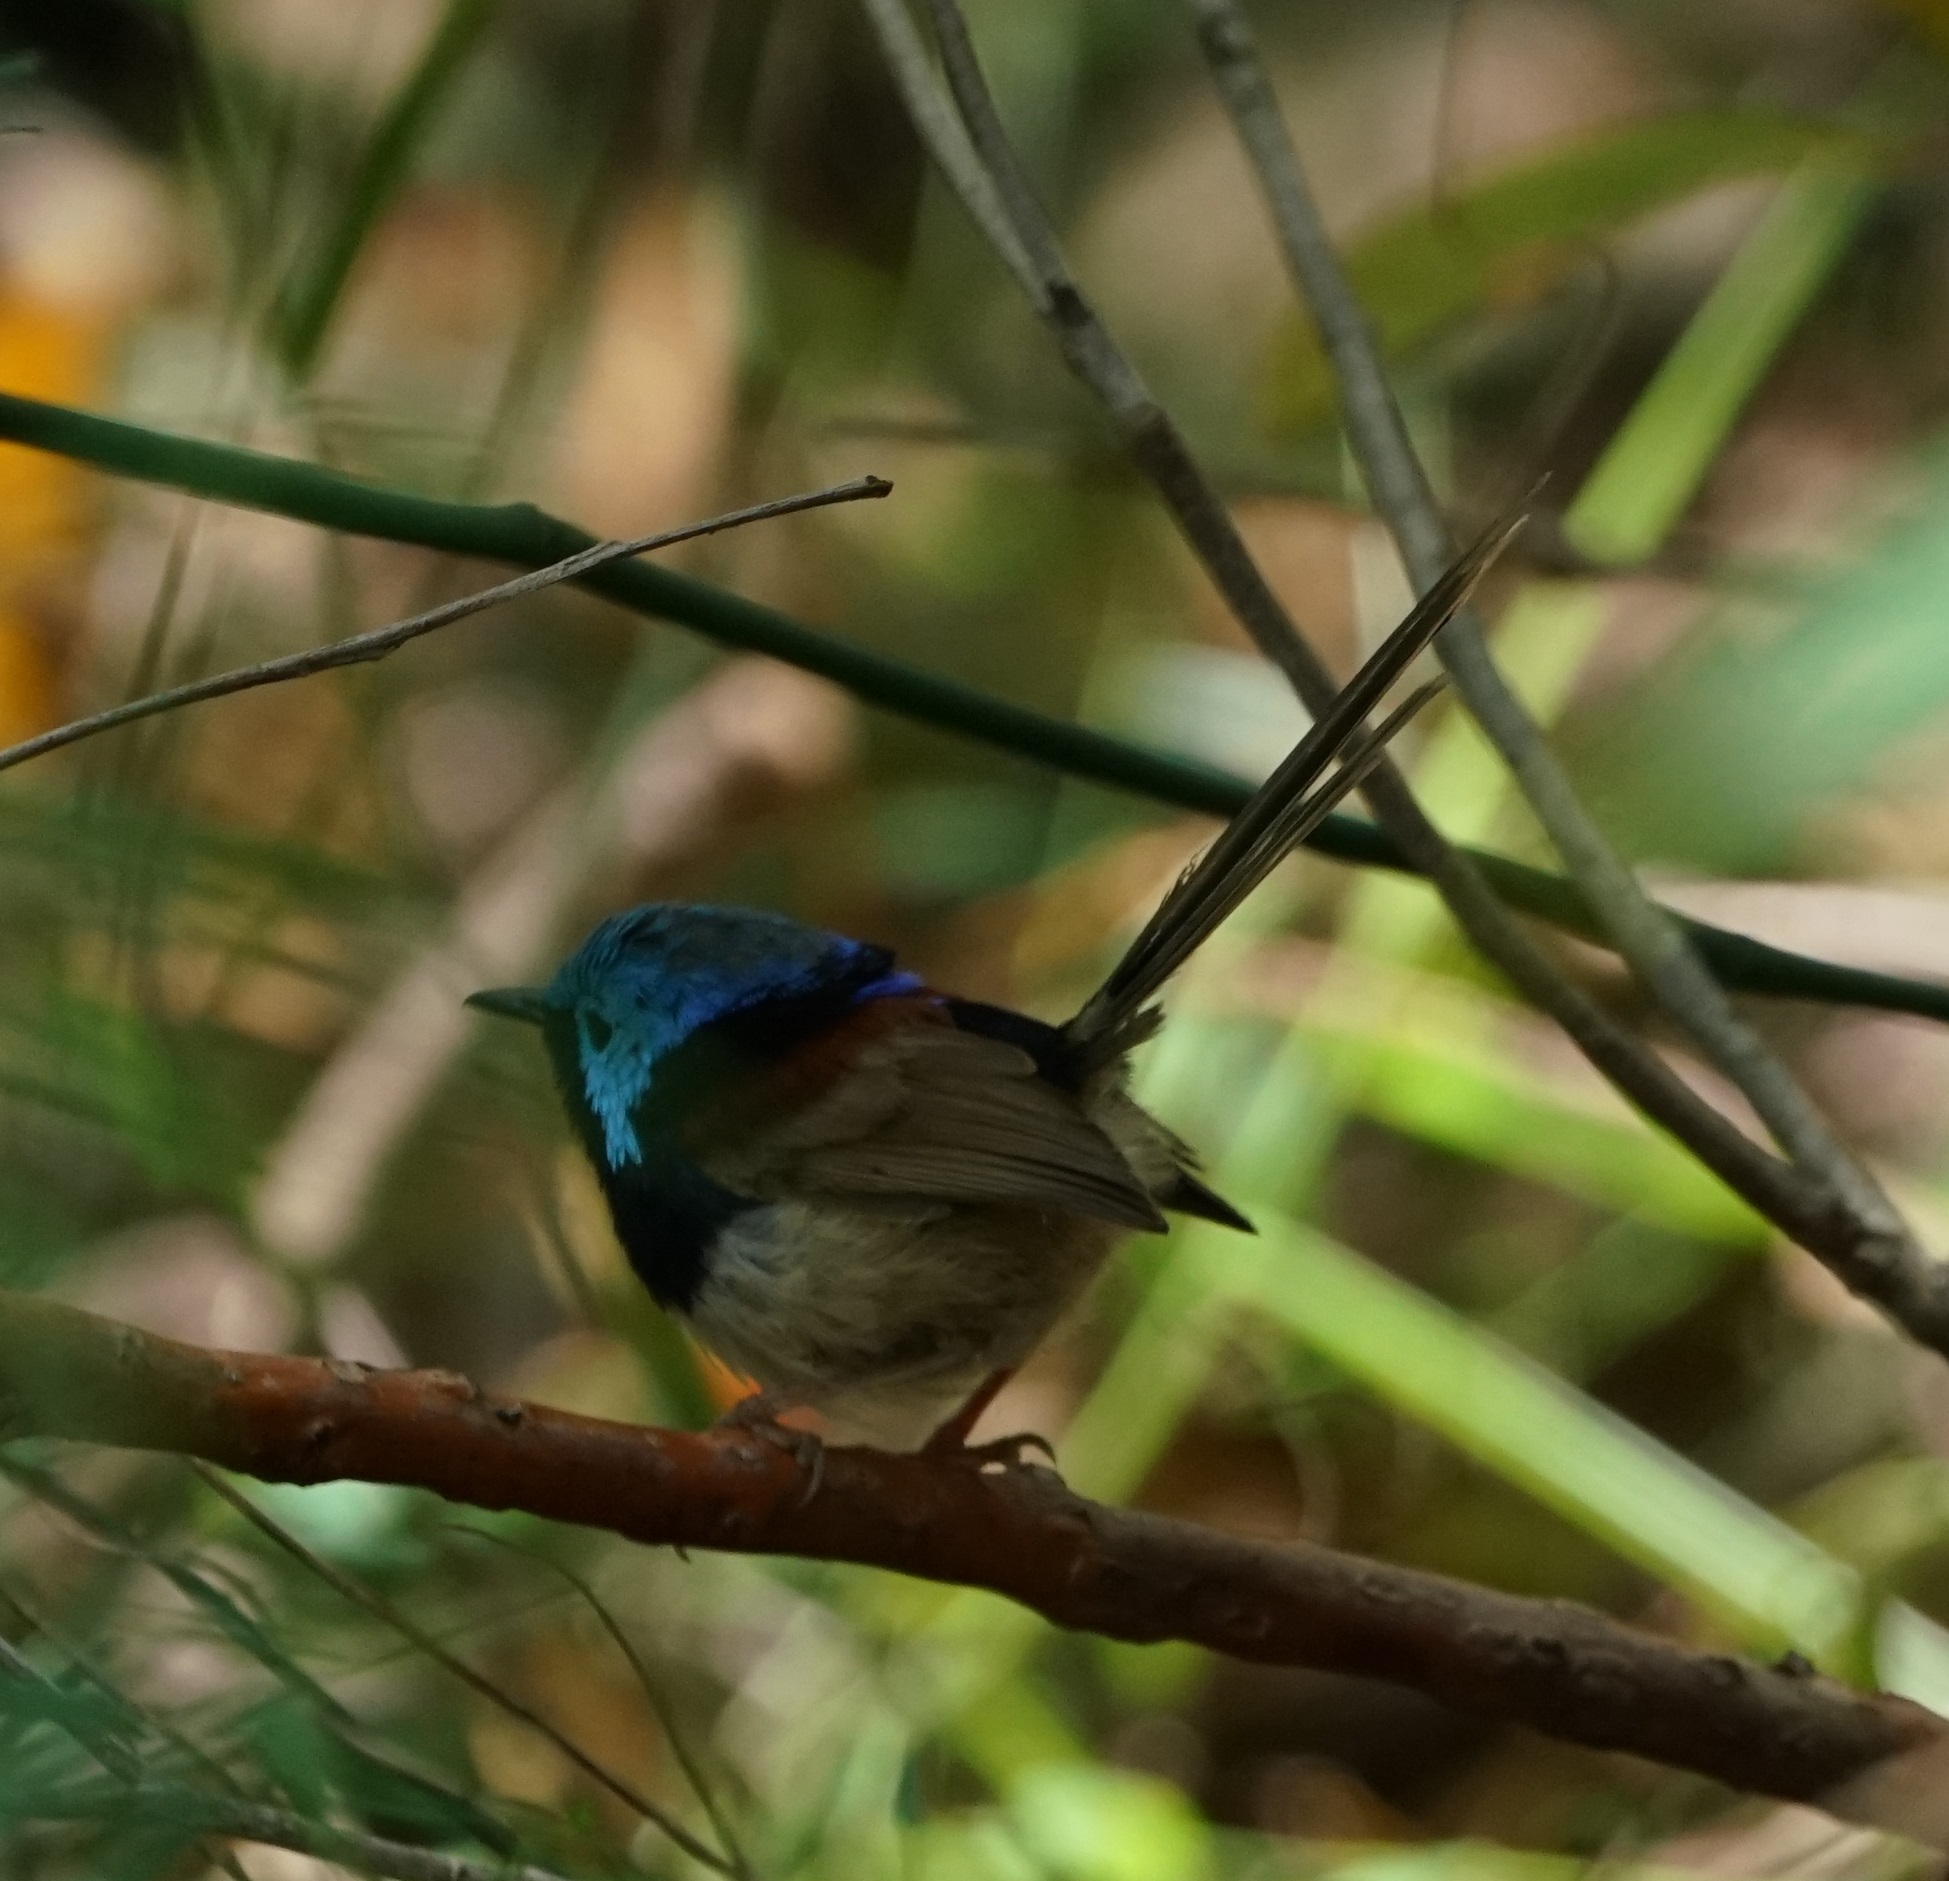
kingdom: Animalia
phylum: Chordata
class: Aves
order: Passeriformes
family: Maluridae
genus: Malurus
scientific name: Malurus lamberti
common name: Variegated fairywren
